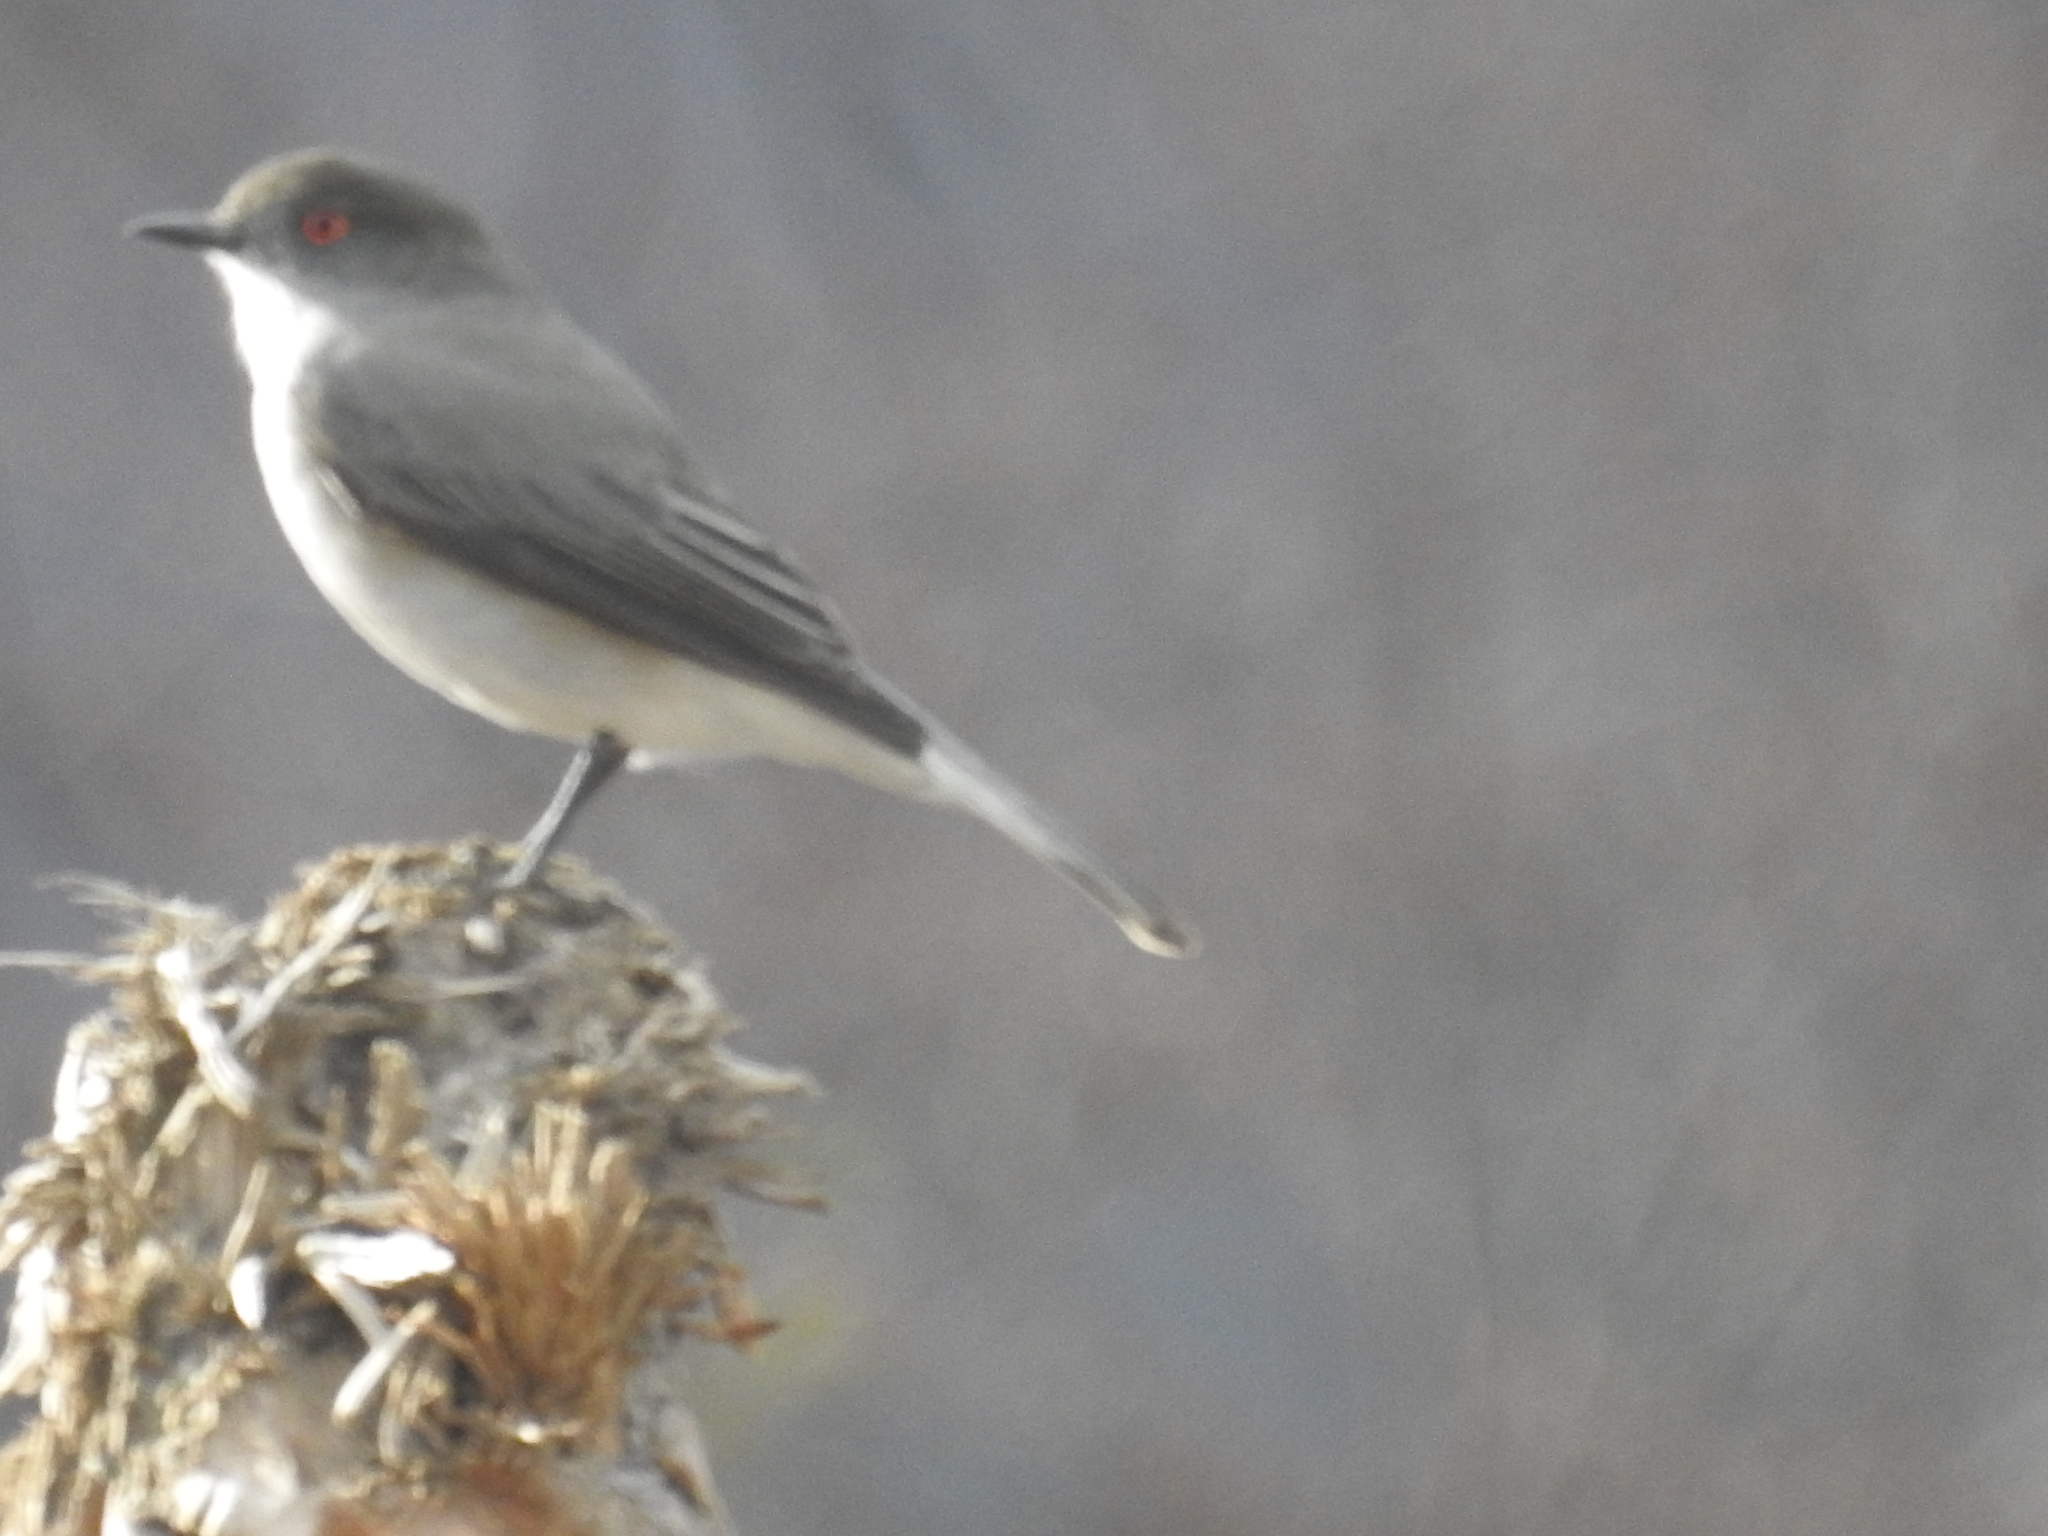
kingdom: Animalia
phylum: Chordata
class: Aves
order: Passeriformes
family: Tyrannidae
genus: Xolmis
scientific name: Xolmis pyrope
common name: Fire-eyed diucon
